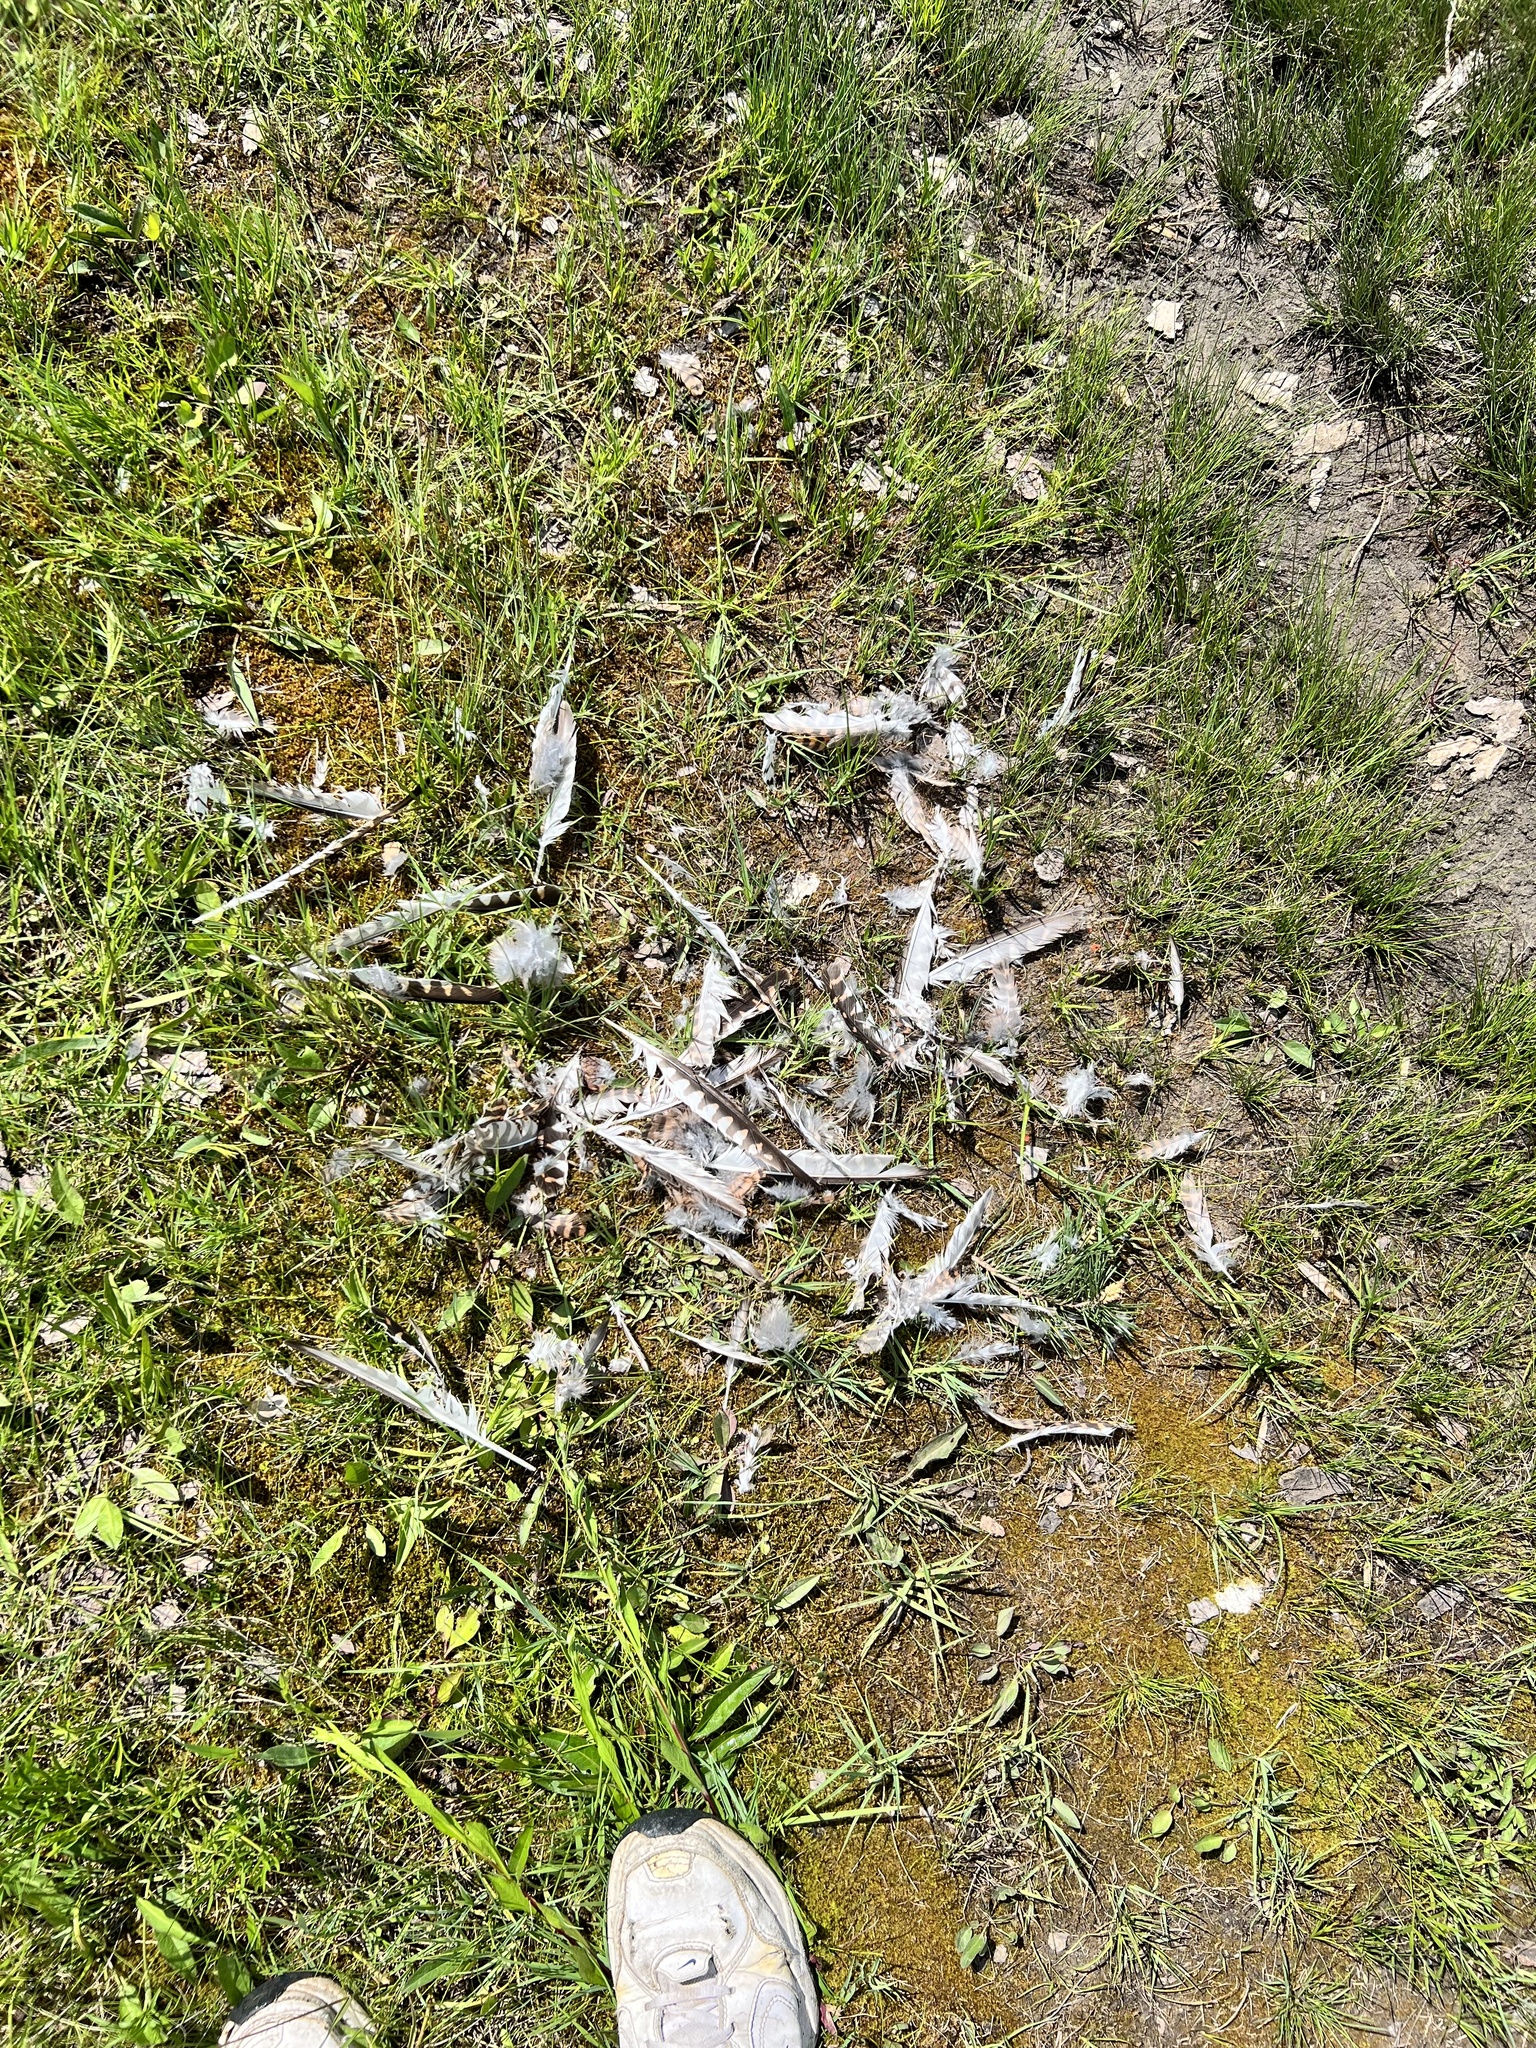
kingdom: Animalia
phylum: Chordata
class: Aves
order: Falconiformes
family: Falconidae
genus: Falco
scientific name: Falco tinnunculus
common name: Common kestrel
